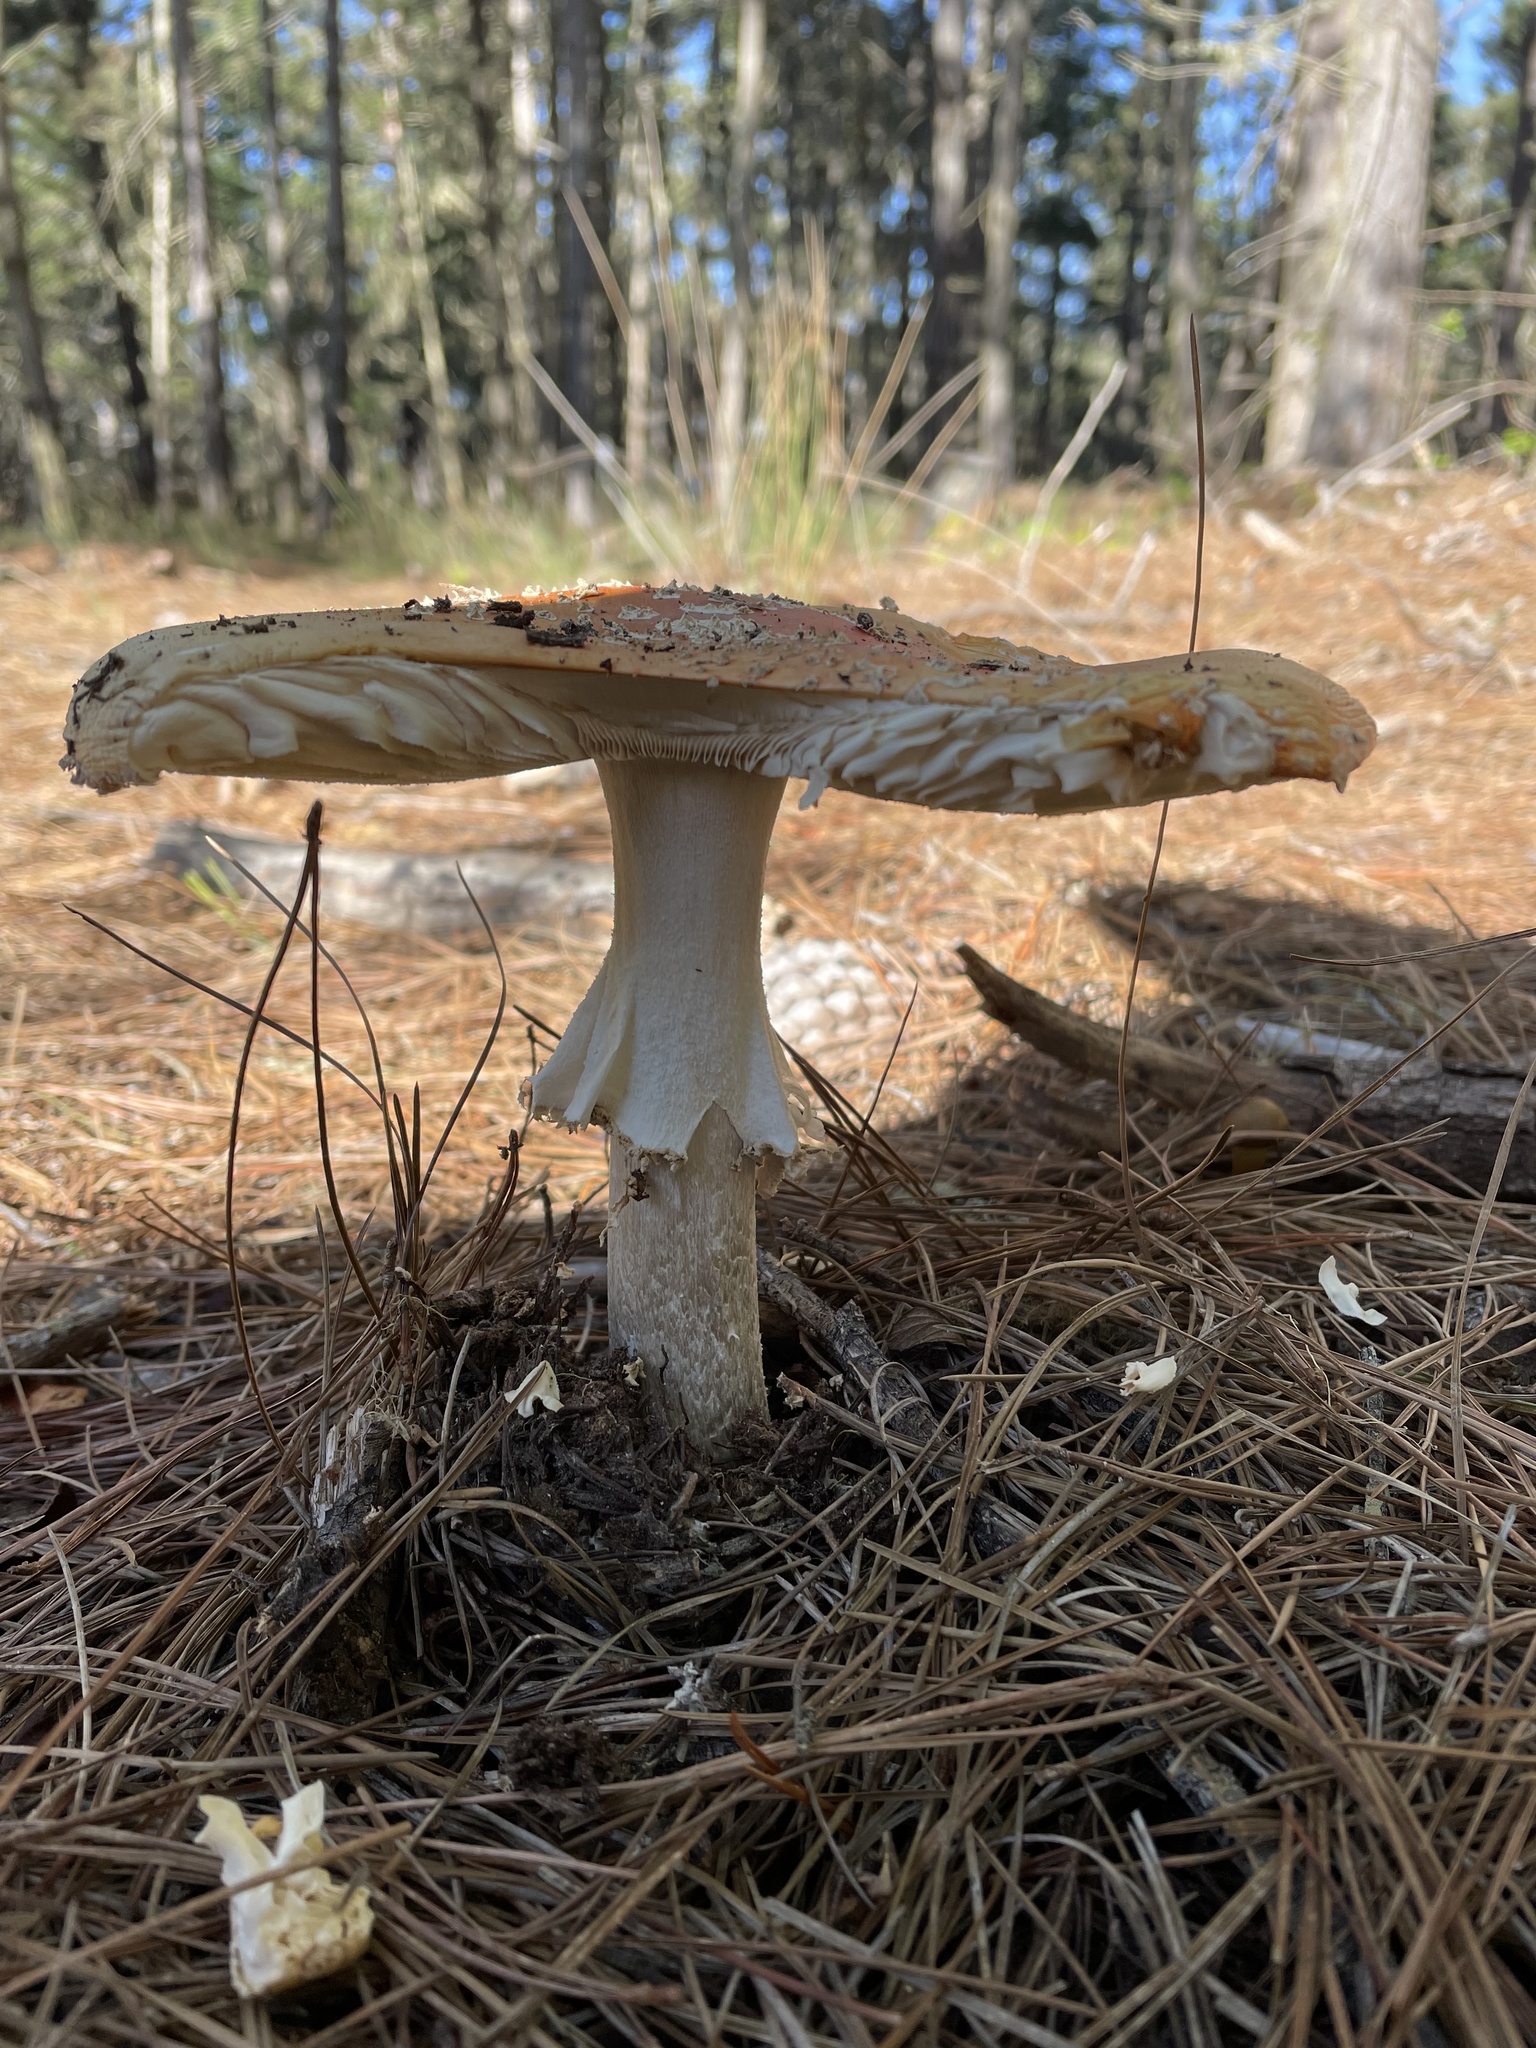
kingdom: Fungi
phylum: Basidiomycota
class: Agaricomycetes
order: Agaricales
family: Amanitaceae
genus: Amanita
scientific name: Amanita muscaria
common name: Fly agaric
